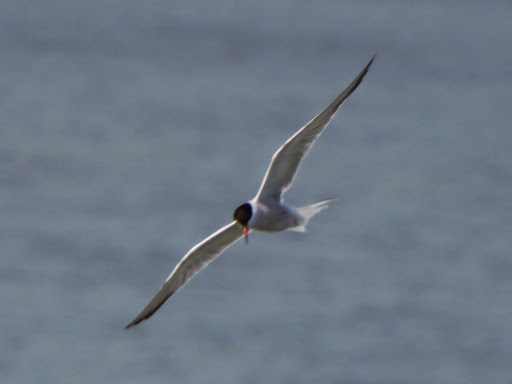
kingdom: Animalia
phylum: Chordata
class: Aves
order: Charadriiformes
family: Laridae
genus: Sterna
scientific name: Sterna forsteri
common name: Forster's tern
